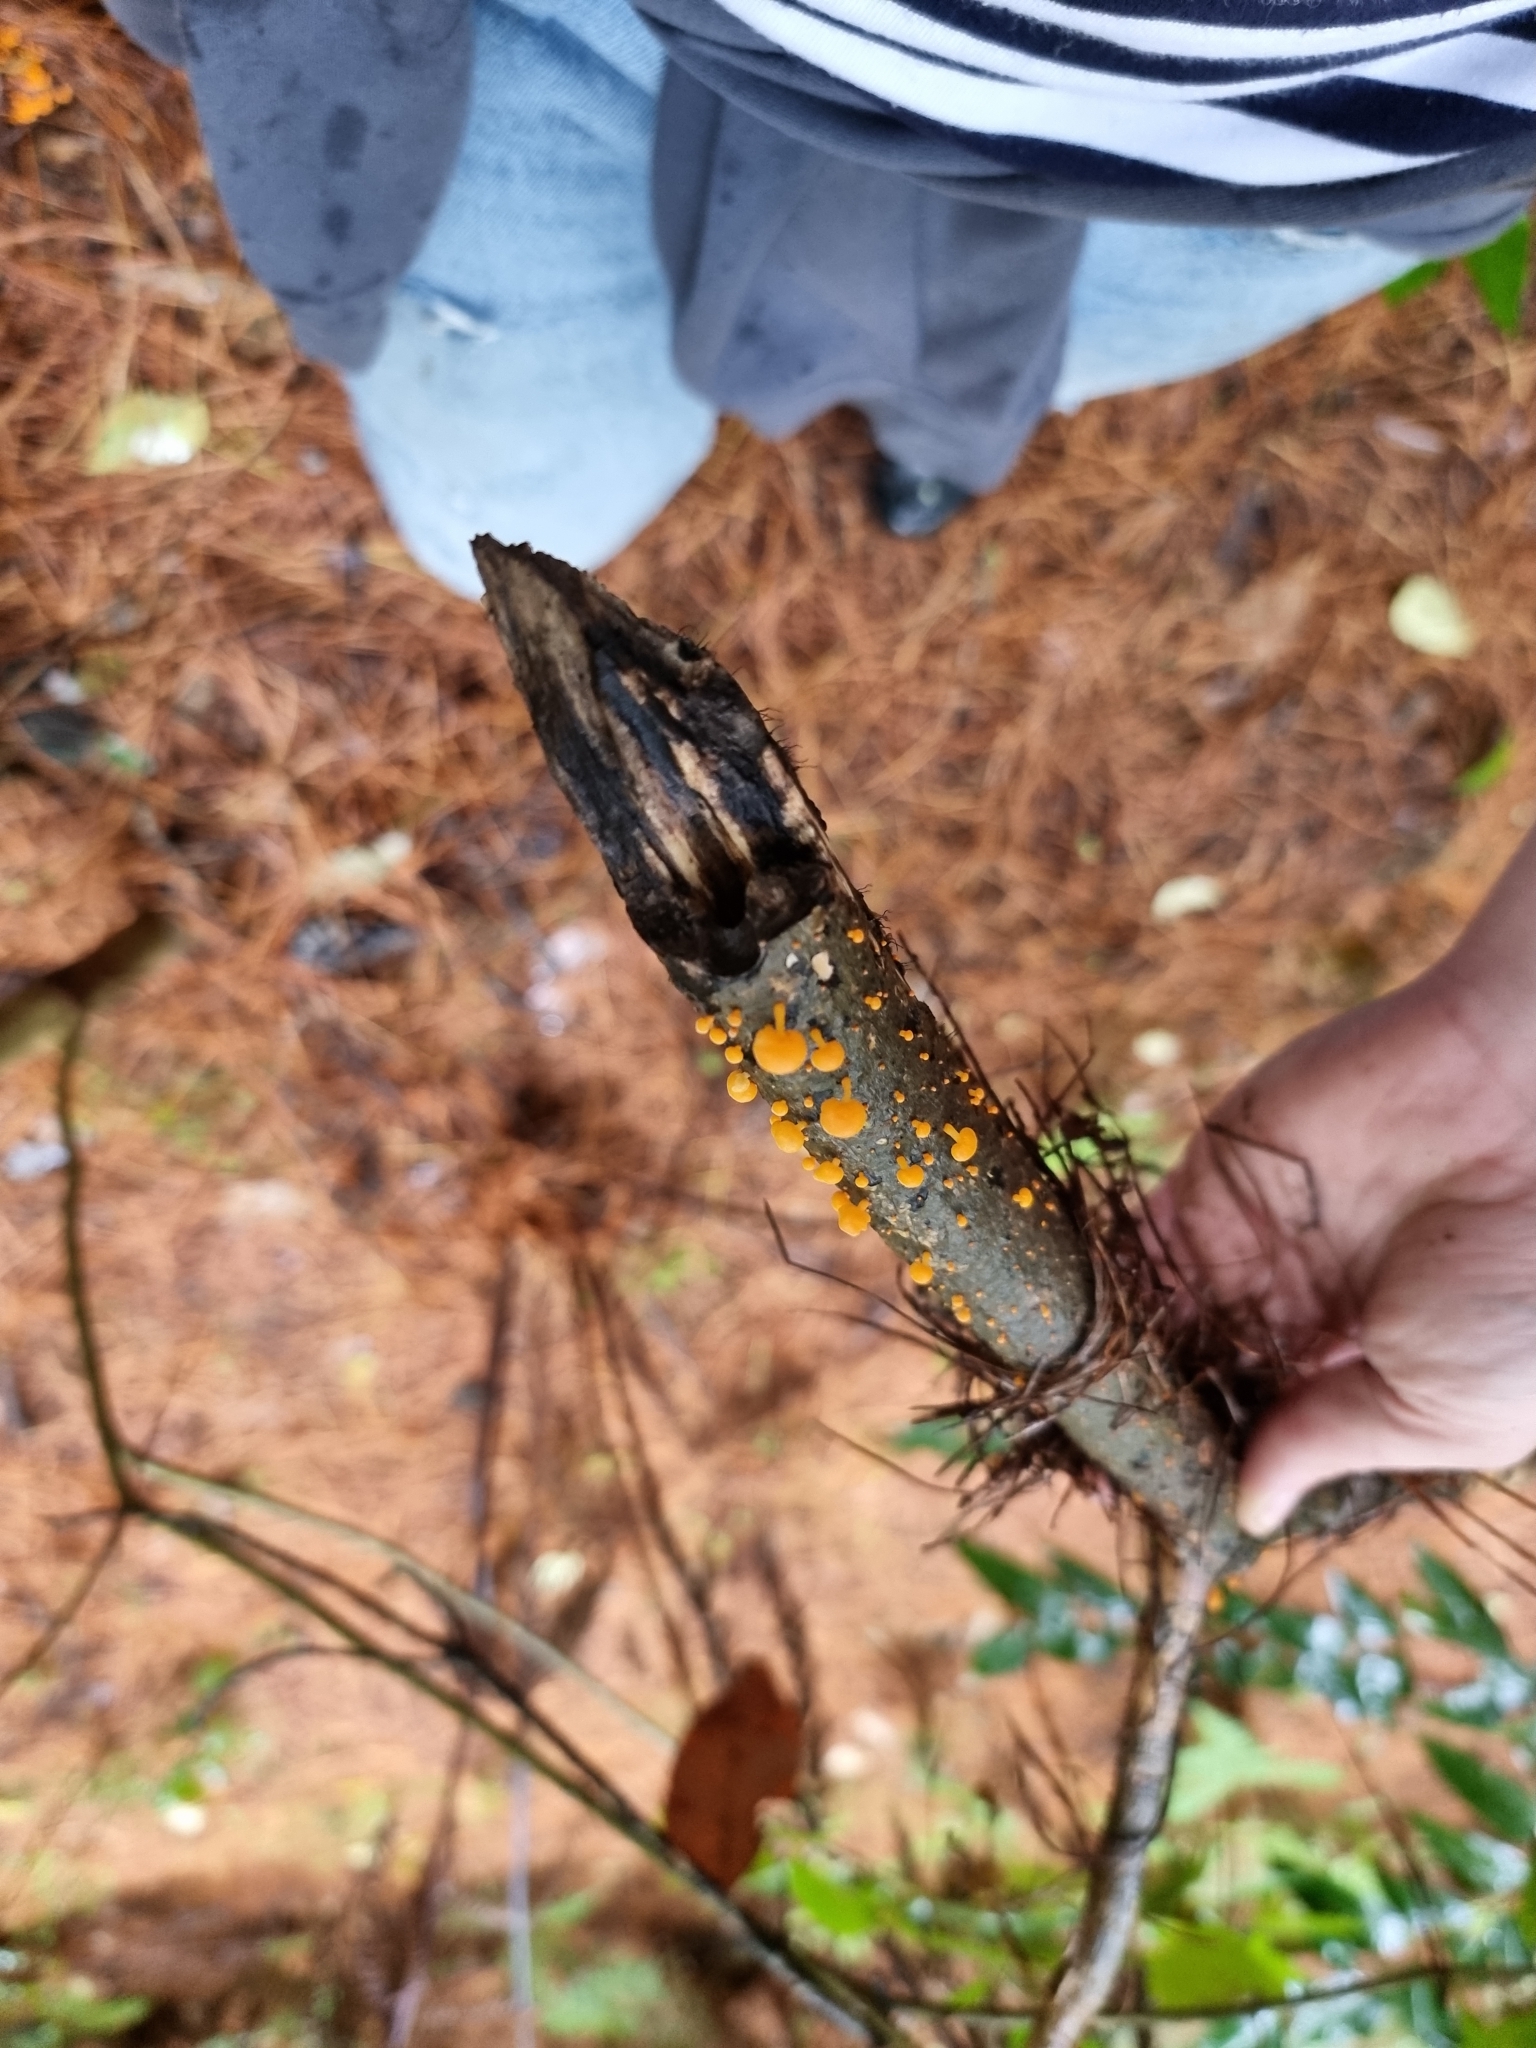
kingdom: Fungi
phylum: Basidiomycota
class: Agaricomycetes
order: Agaricales
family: Mycenaceae
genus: Favolaschia
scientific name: Favolaschia claudopus
